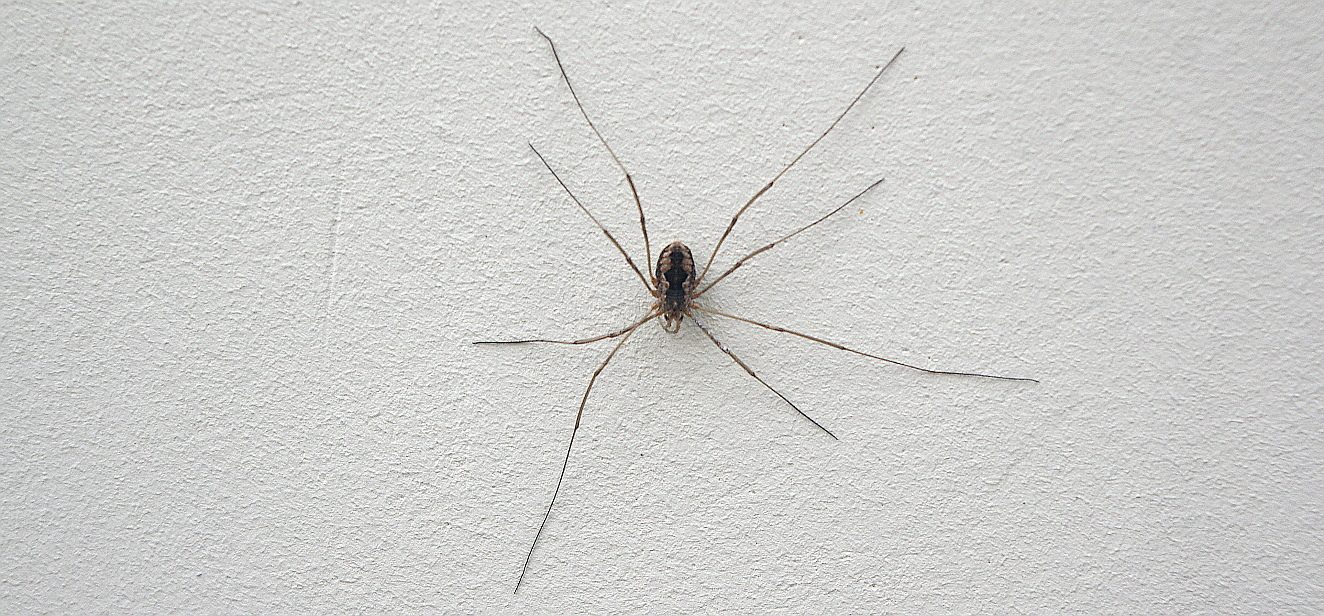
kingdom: Animalia
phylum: Arthropoda
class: Arachnida
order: Opiliones
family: Phalangiidae
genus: Phalangium
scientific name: Phalangium opilio
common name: Daddy longleg
